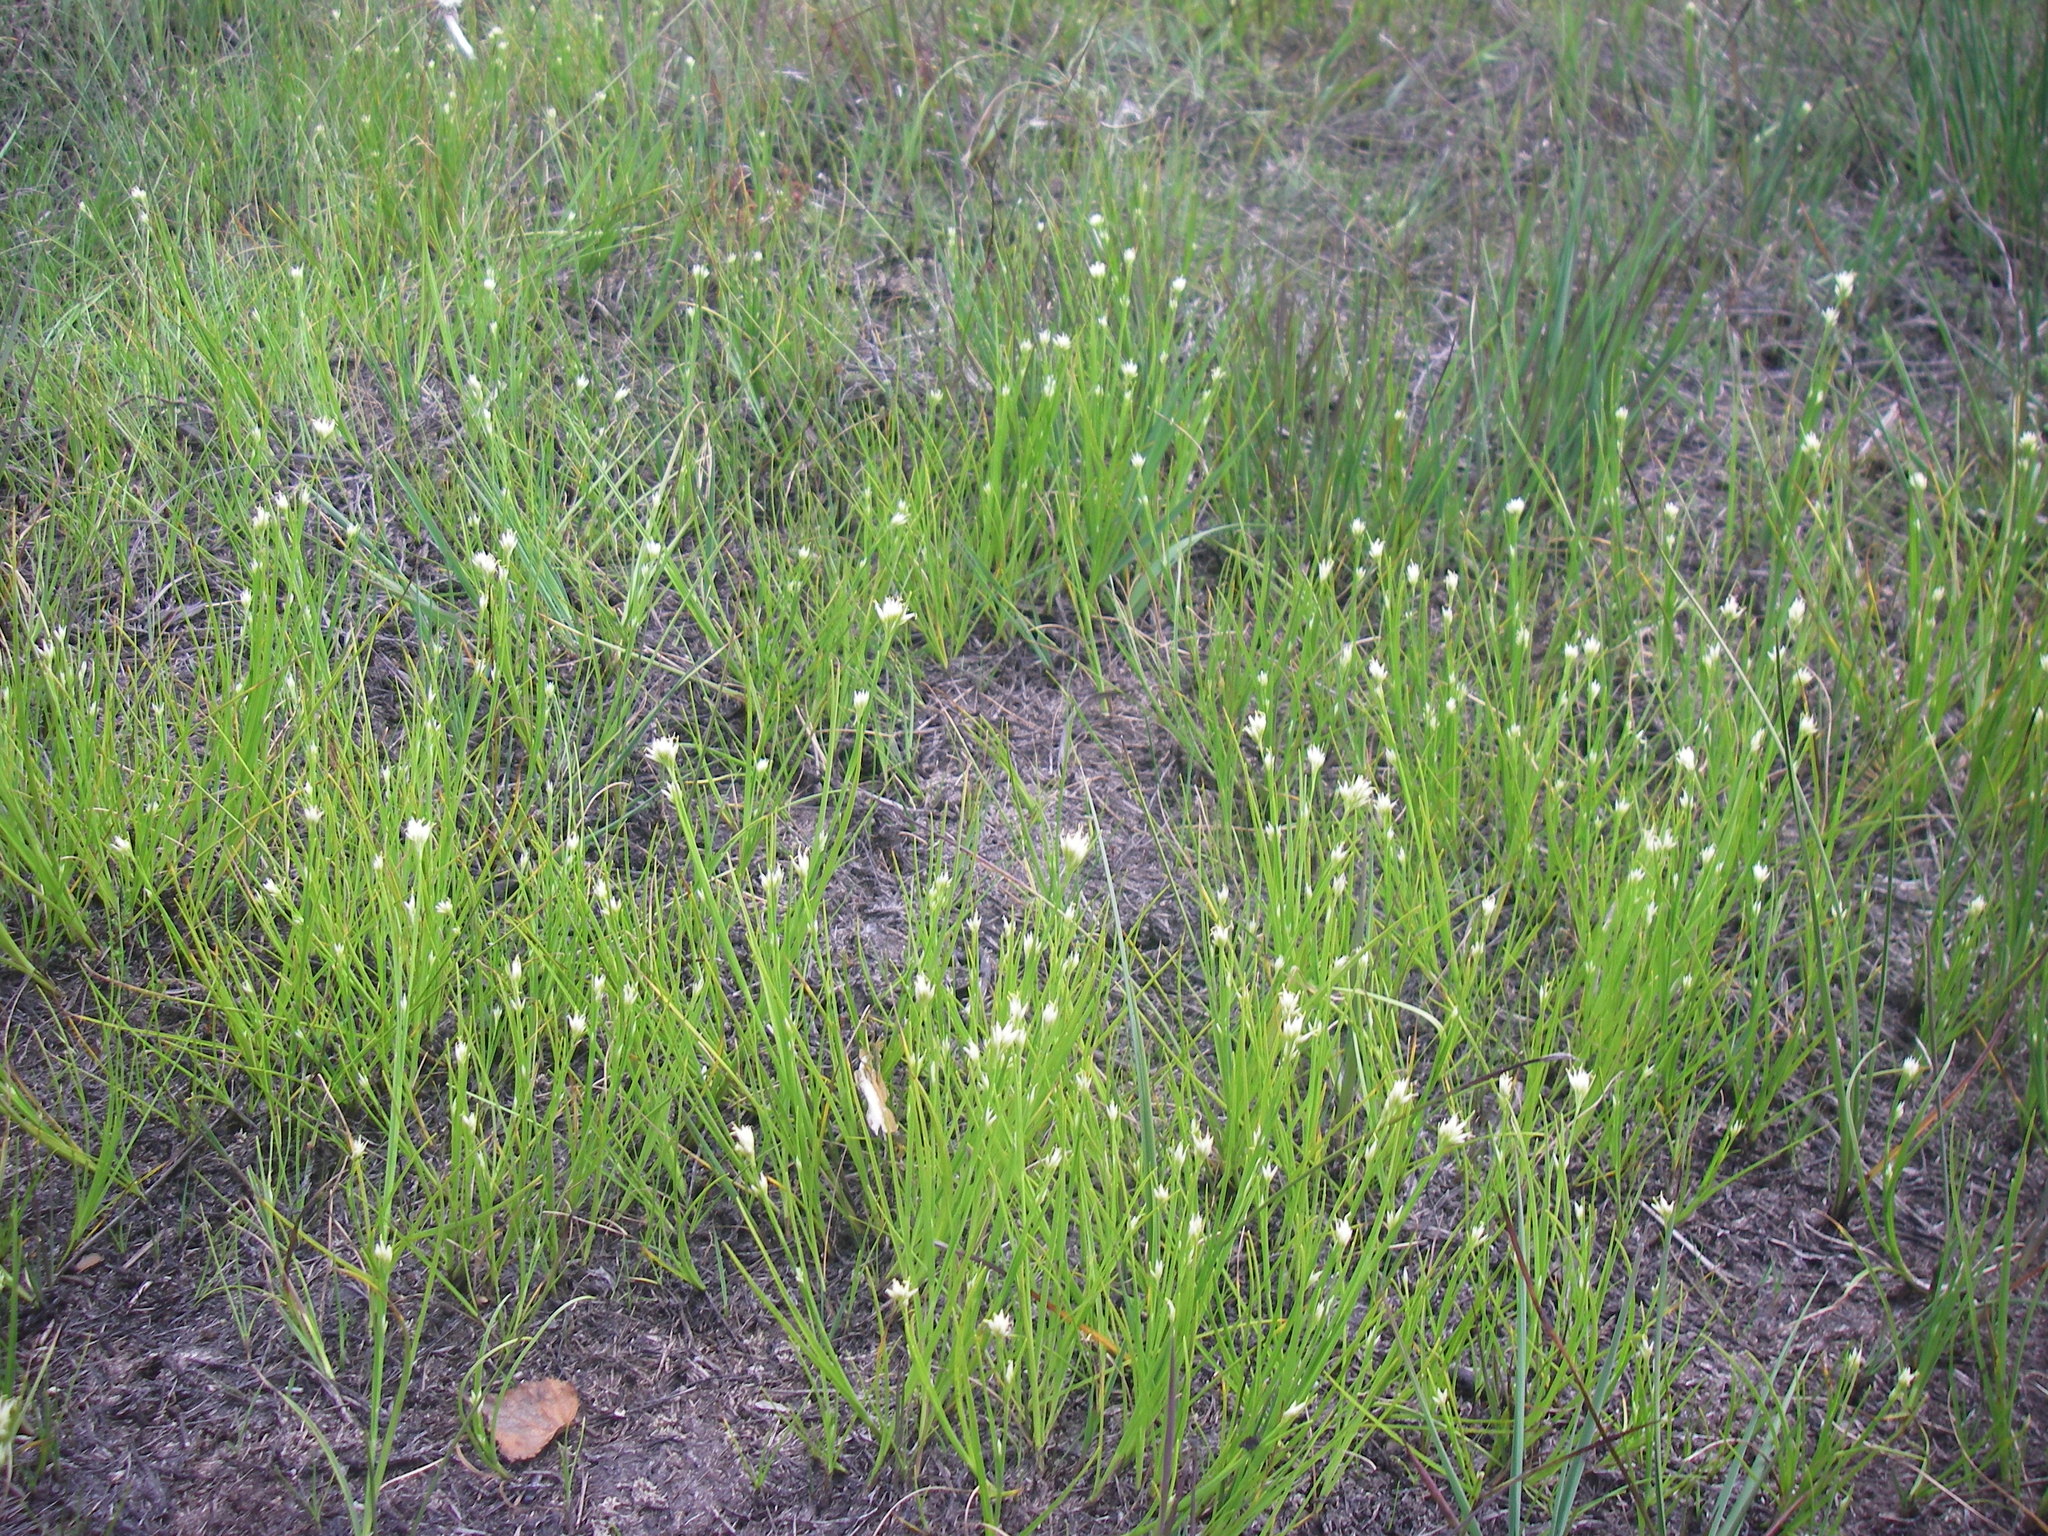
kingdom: Plantae
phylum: Tracheophyta
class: Liliopsida
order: Poales
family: Cyperaceae
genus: Rhynchospora
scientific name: Rhynchospora alba
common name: White beak-sedge
